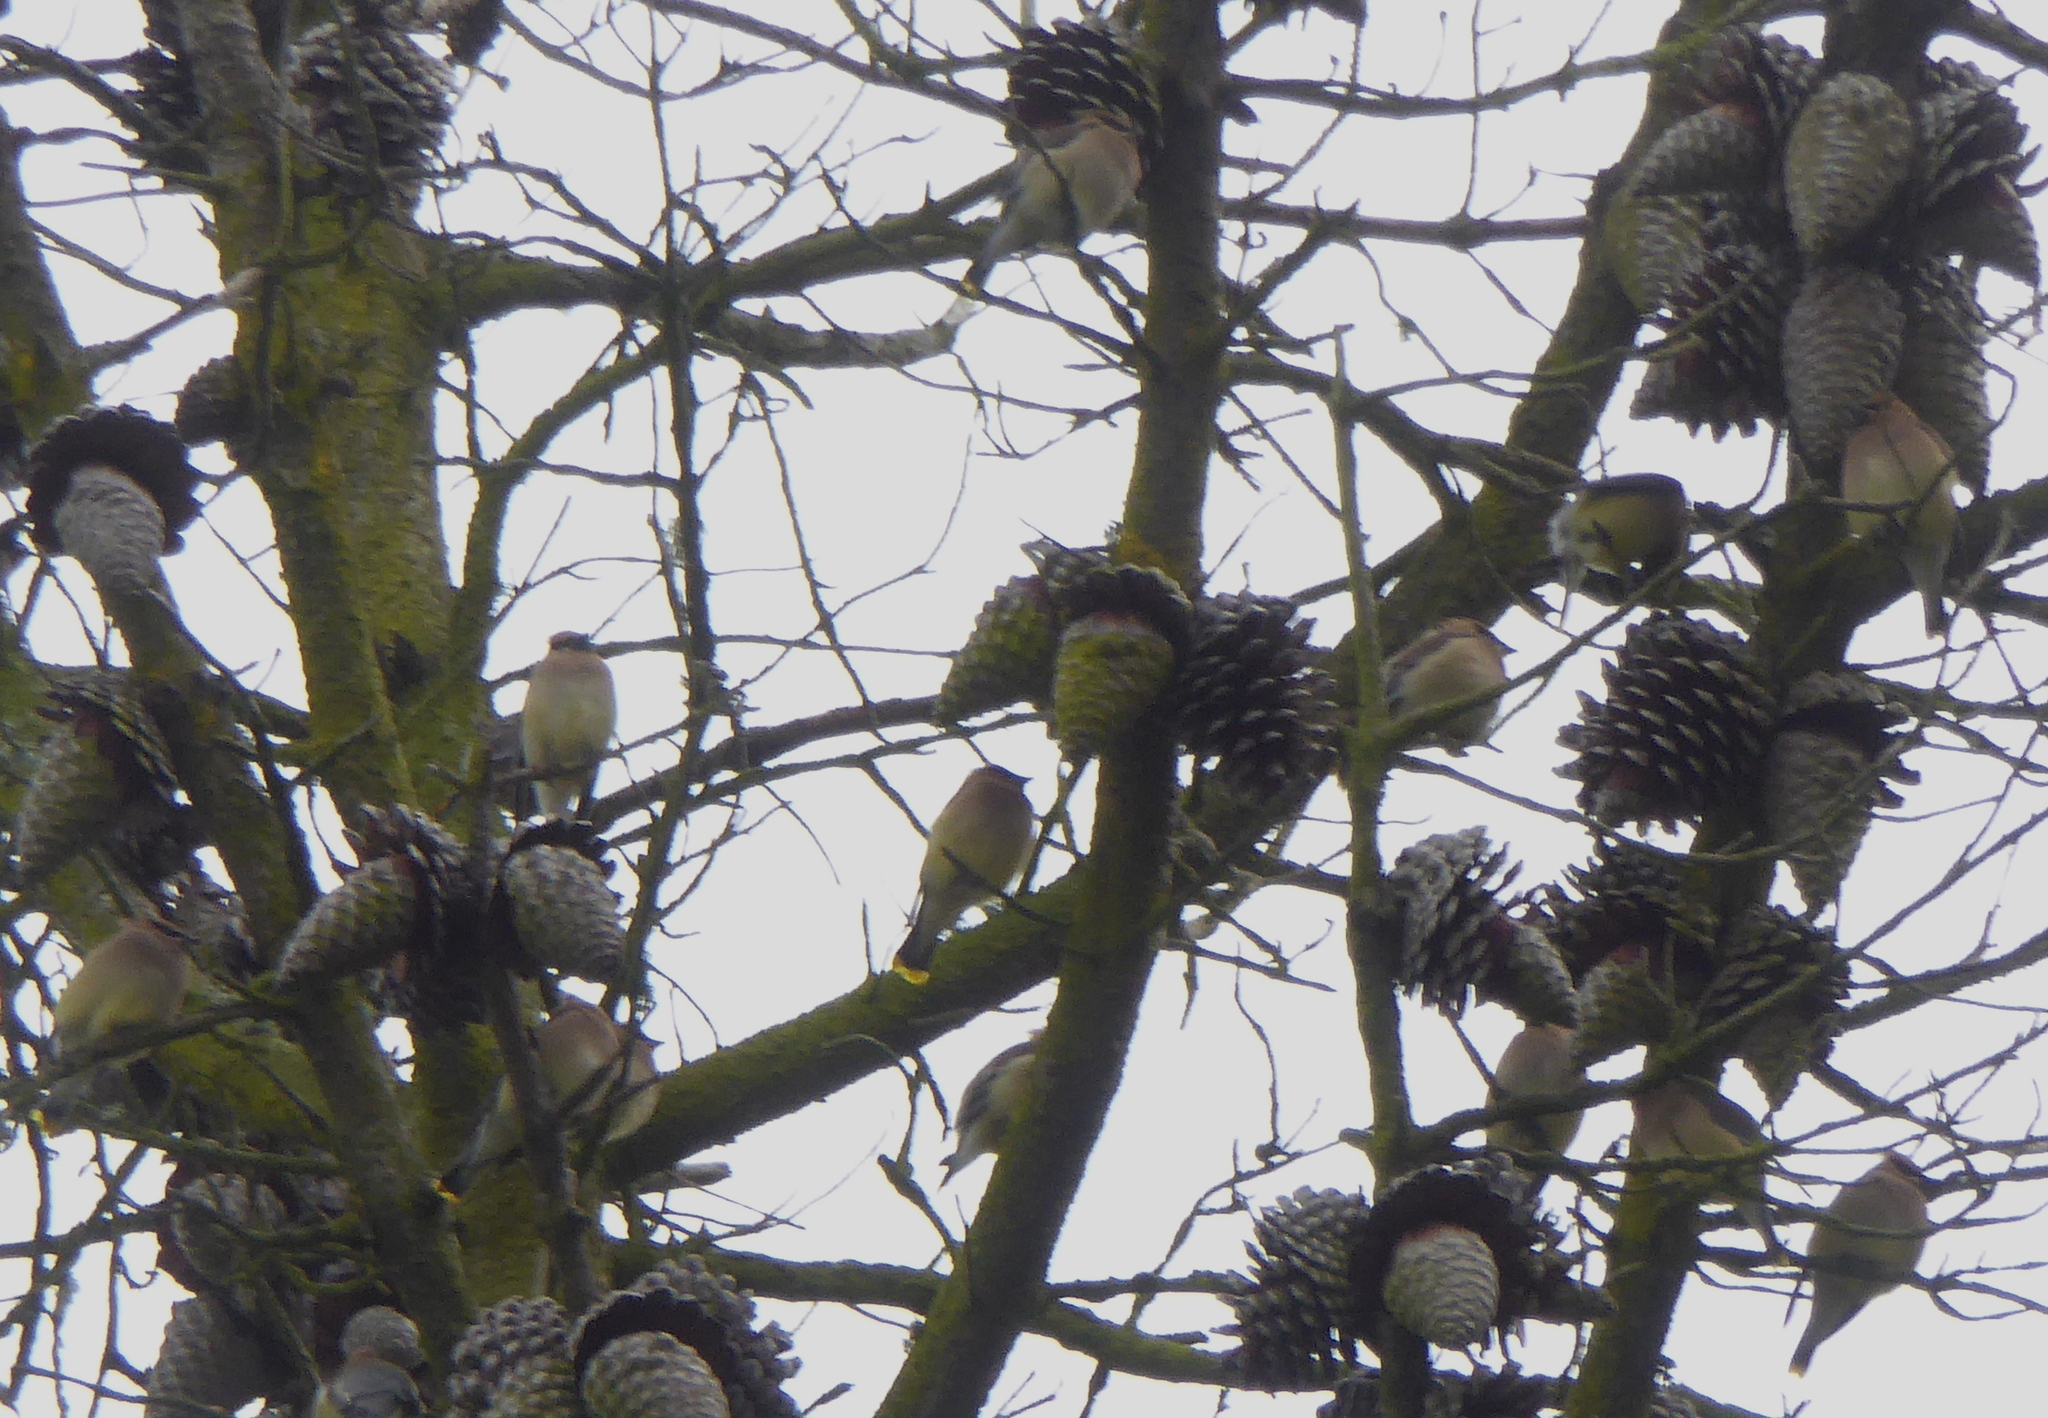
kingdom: Animalia
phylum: Chordata
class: Aves
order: Passeriformes
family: Bombycillidae
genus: Bombycilla
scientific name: Bombycilla cedrorum
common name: Cedar waxwing
